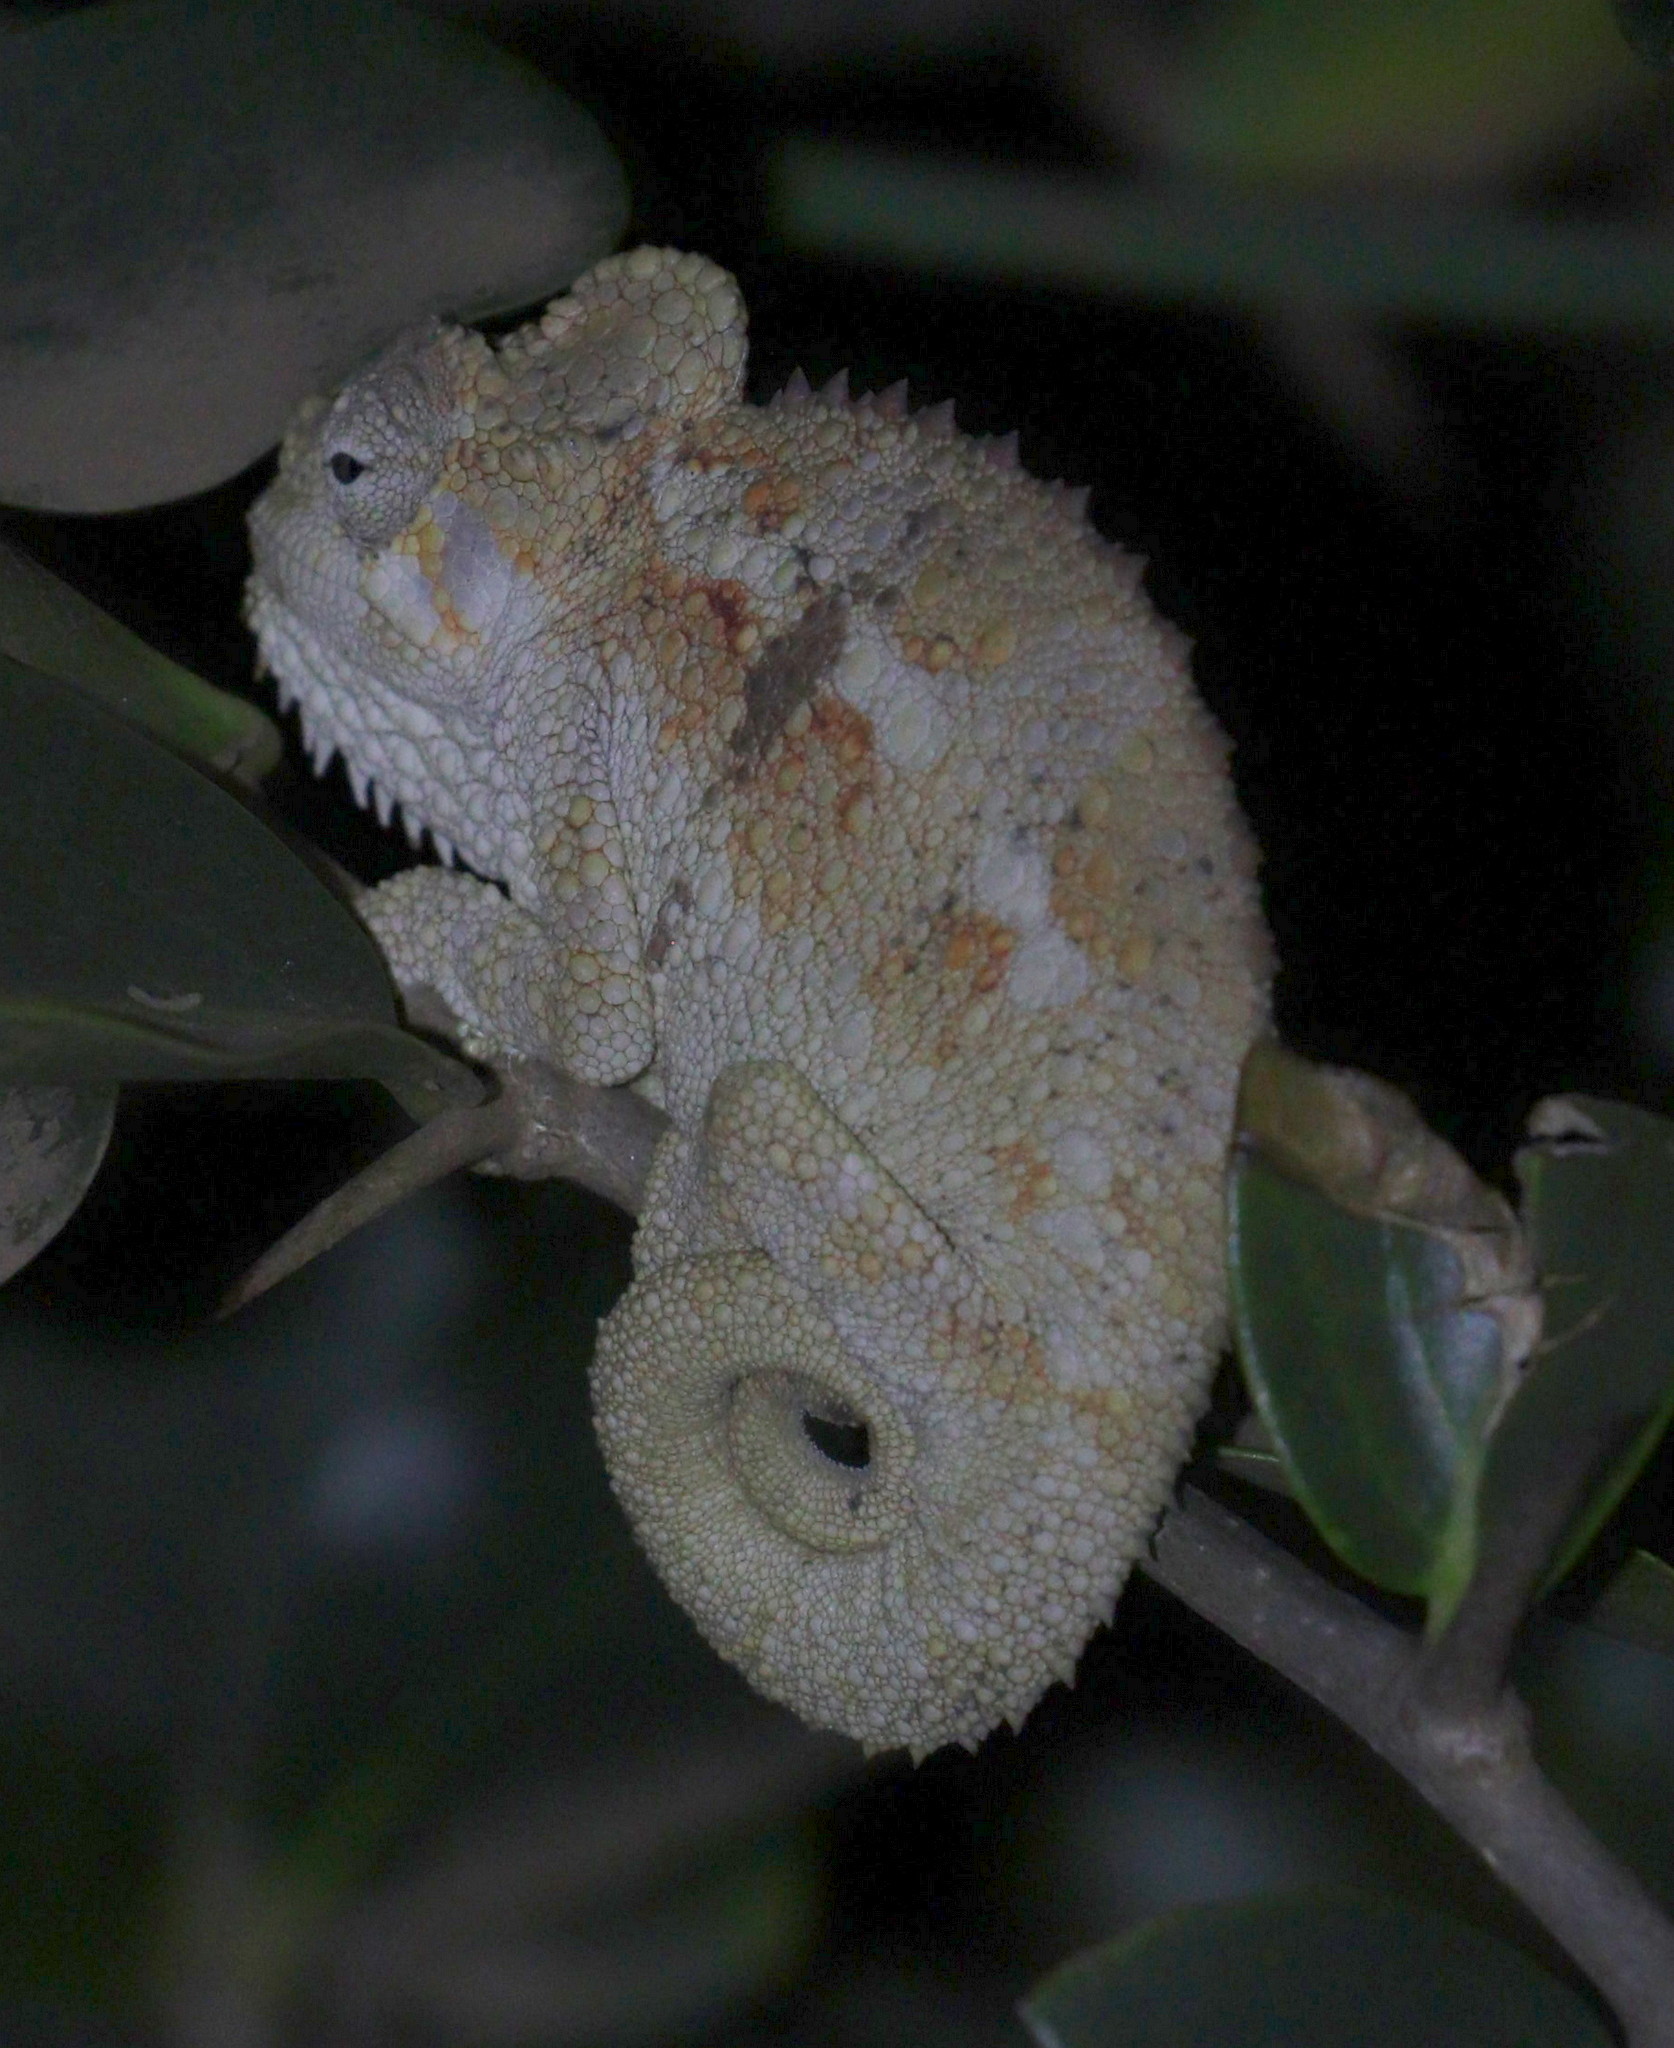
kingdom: Animalia
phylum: Chordata
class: Squamata
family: Chamaeleonidae
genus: Trioceros
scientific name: Trioceros hoehnelii
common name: High-casqued chameleon
